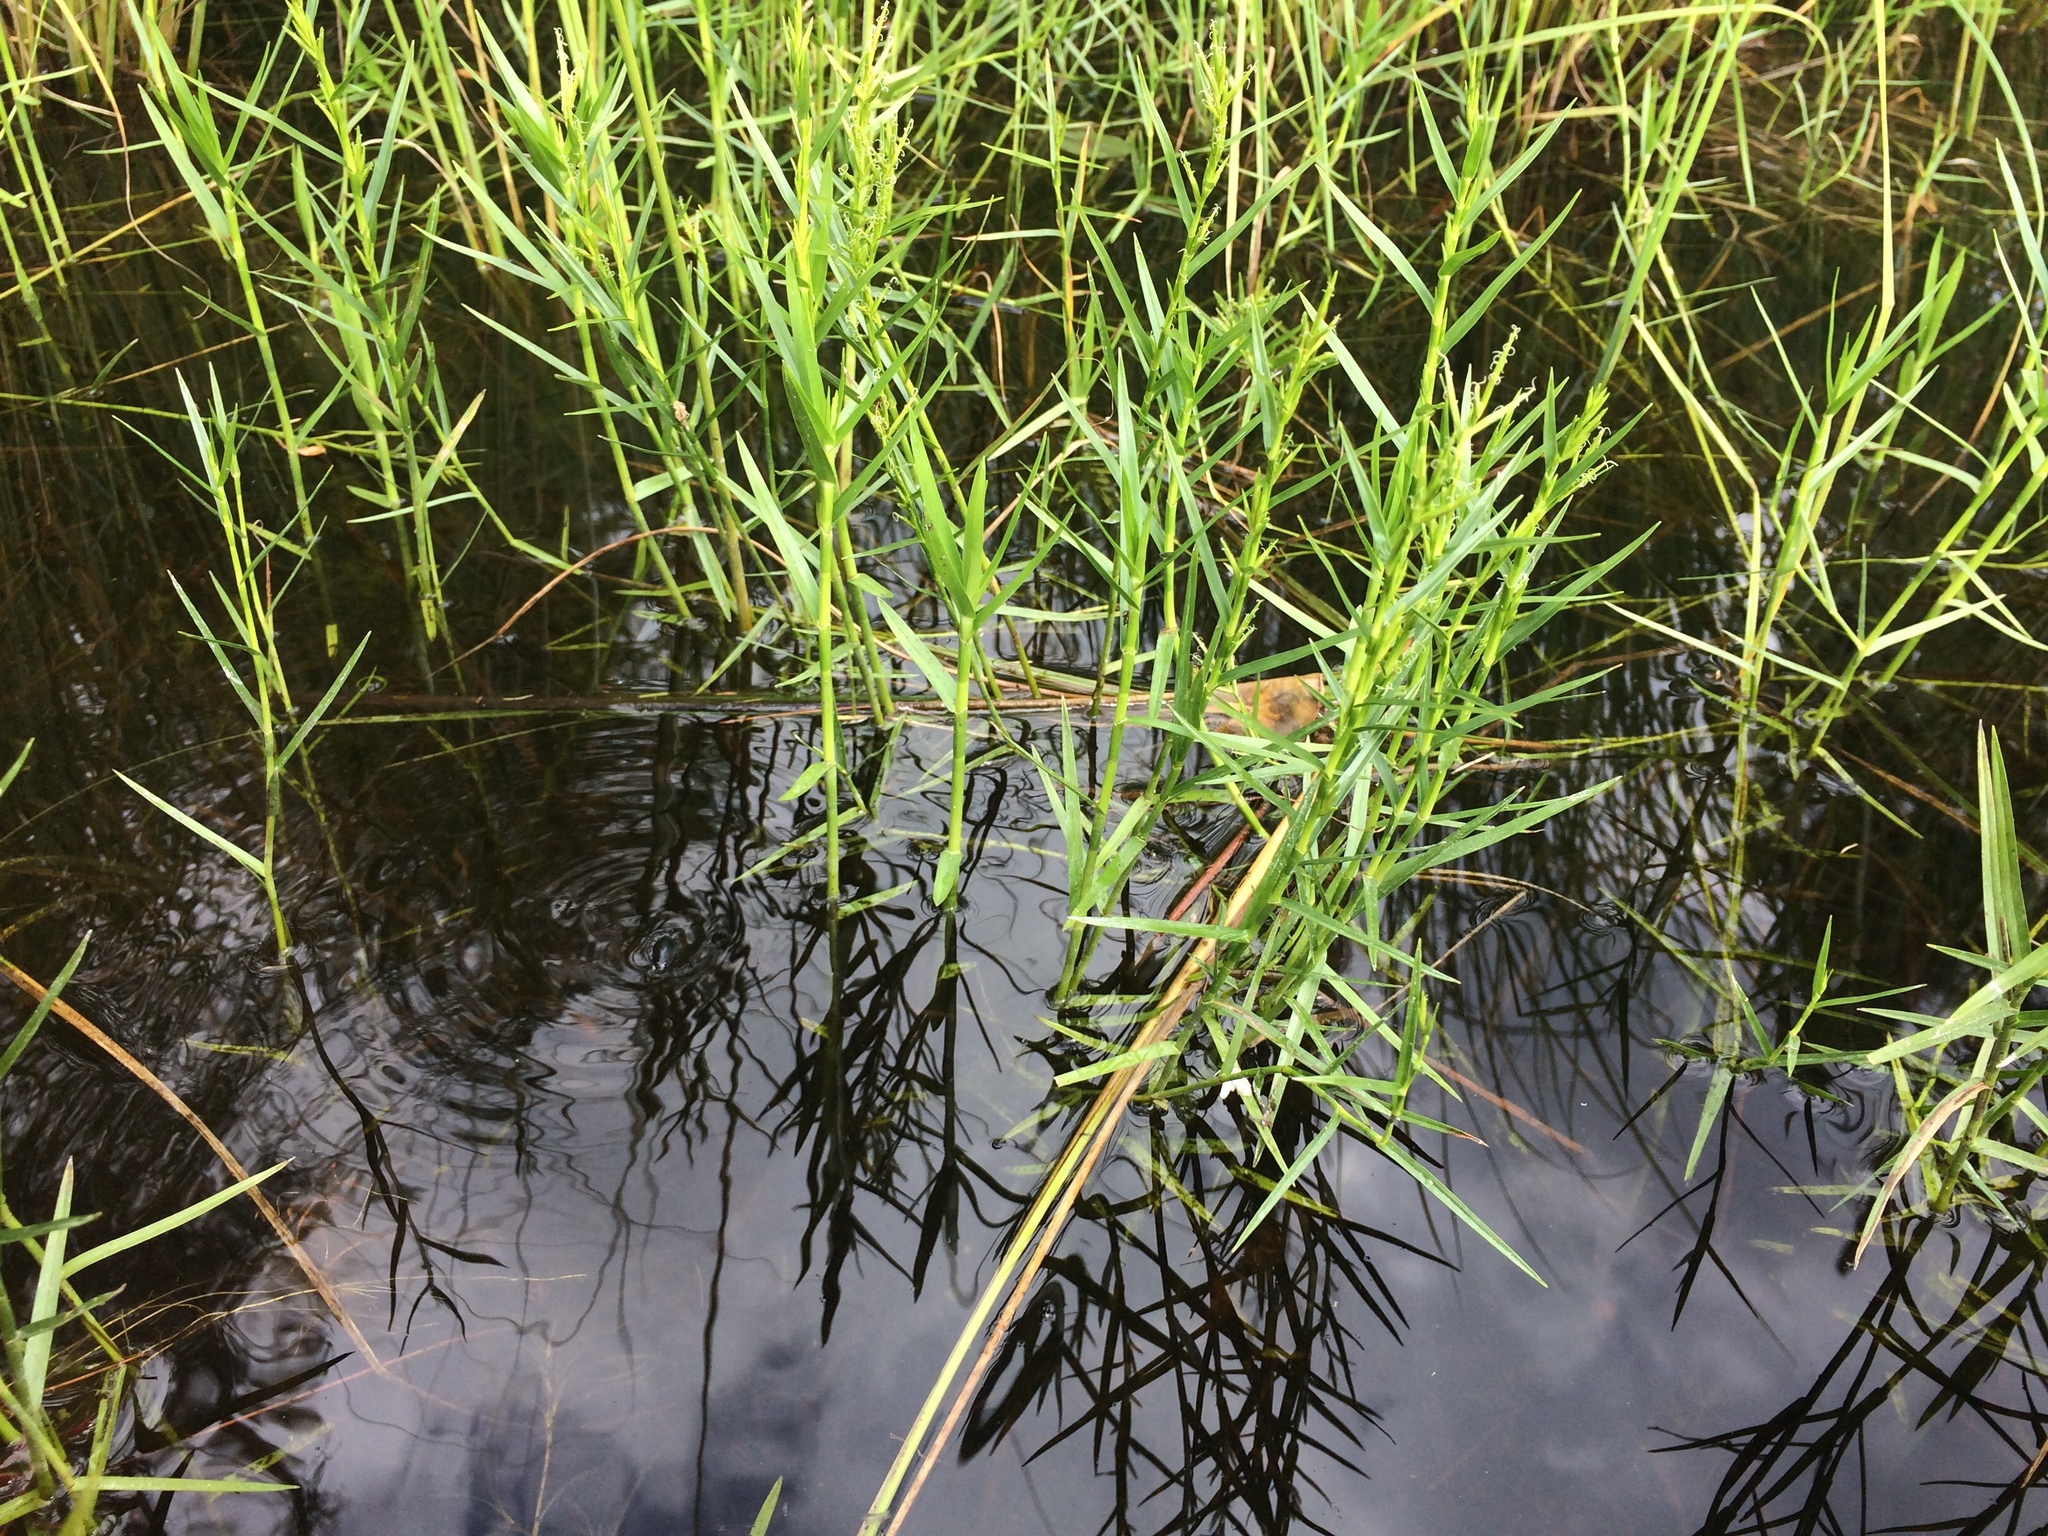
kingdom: Plantae
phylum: Tracheophyta
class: Liliopsida
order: Poales
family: Cyperaceae
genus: Dulichium
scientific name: Dulichium arundinaceum
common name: Three-way sedge
